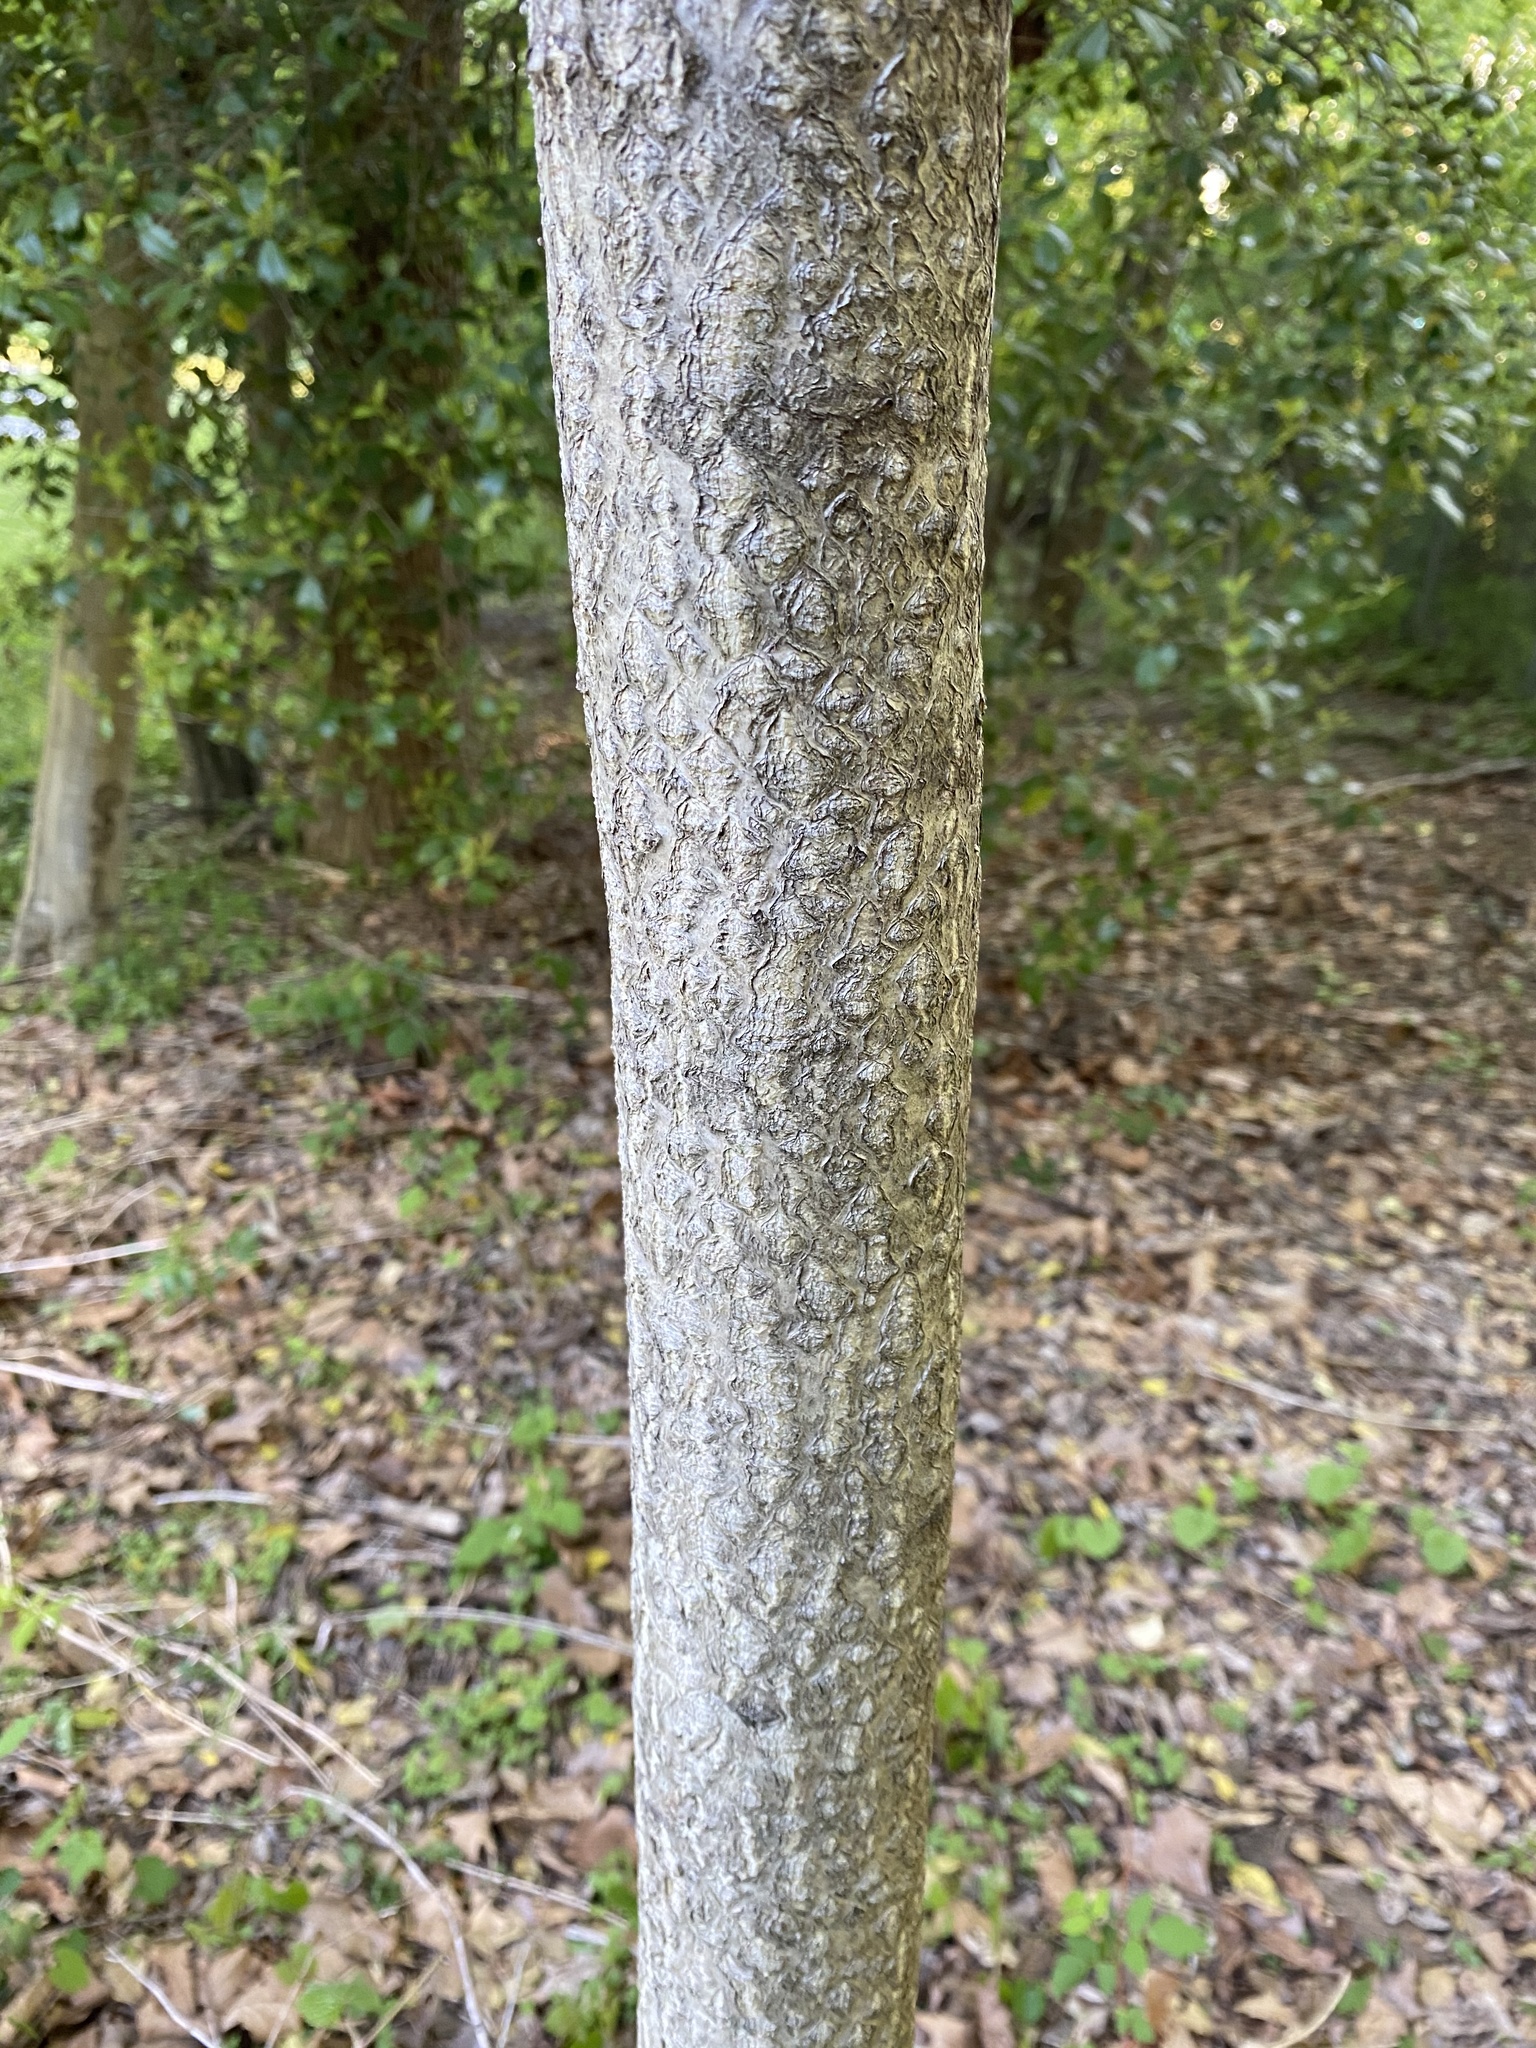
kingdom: Plantae
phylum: Tracheophyta
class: Magnoliopsida
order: Sapindales
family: Simaroubaceae
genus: Ailanthus
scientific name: Ailanthus altissima
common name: Tree-of-heaven
